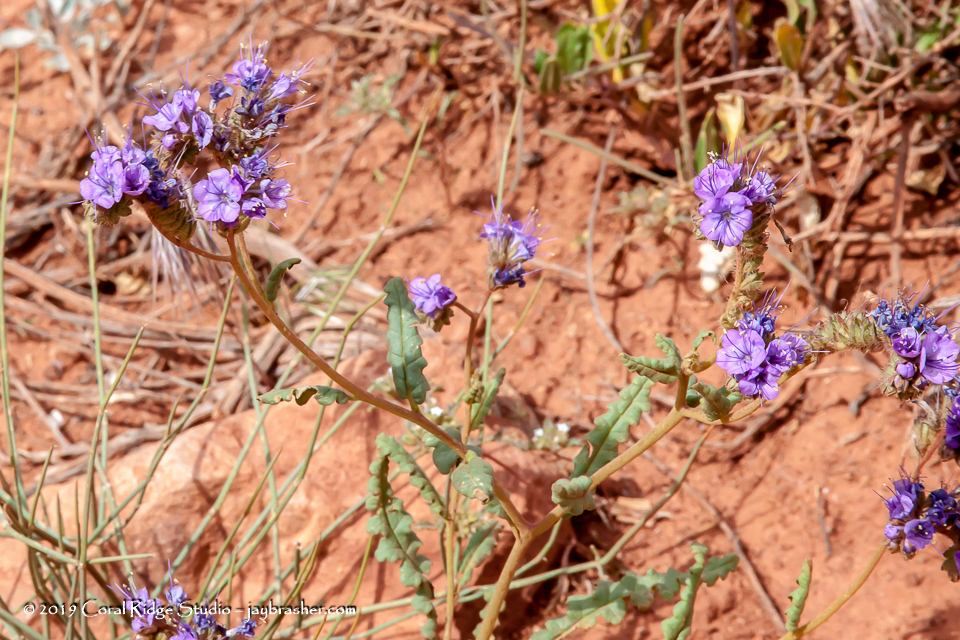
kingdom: Plantae
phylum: Tracheophyta
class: Magnoliopsida
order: Boraginales
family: Hydrophyllaceae
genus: Phacelia
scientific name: Phacelia corrugata
